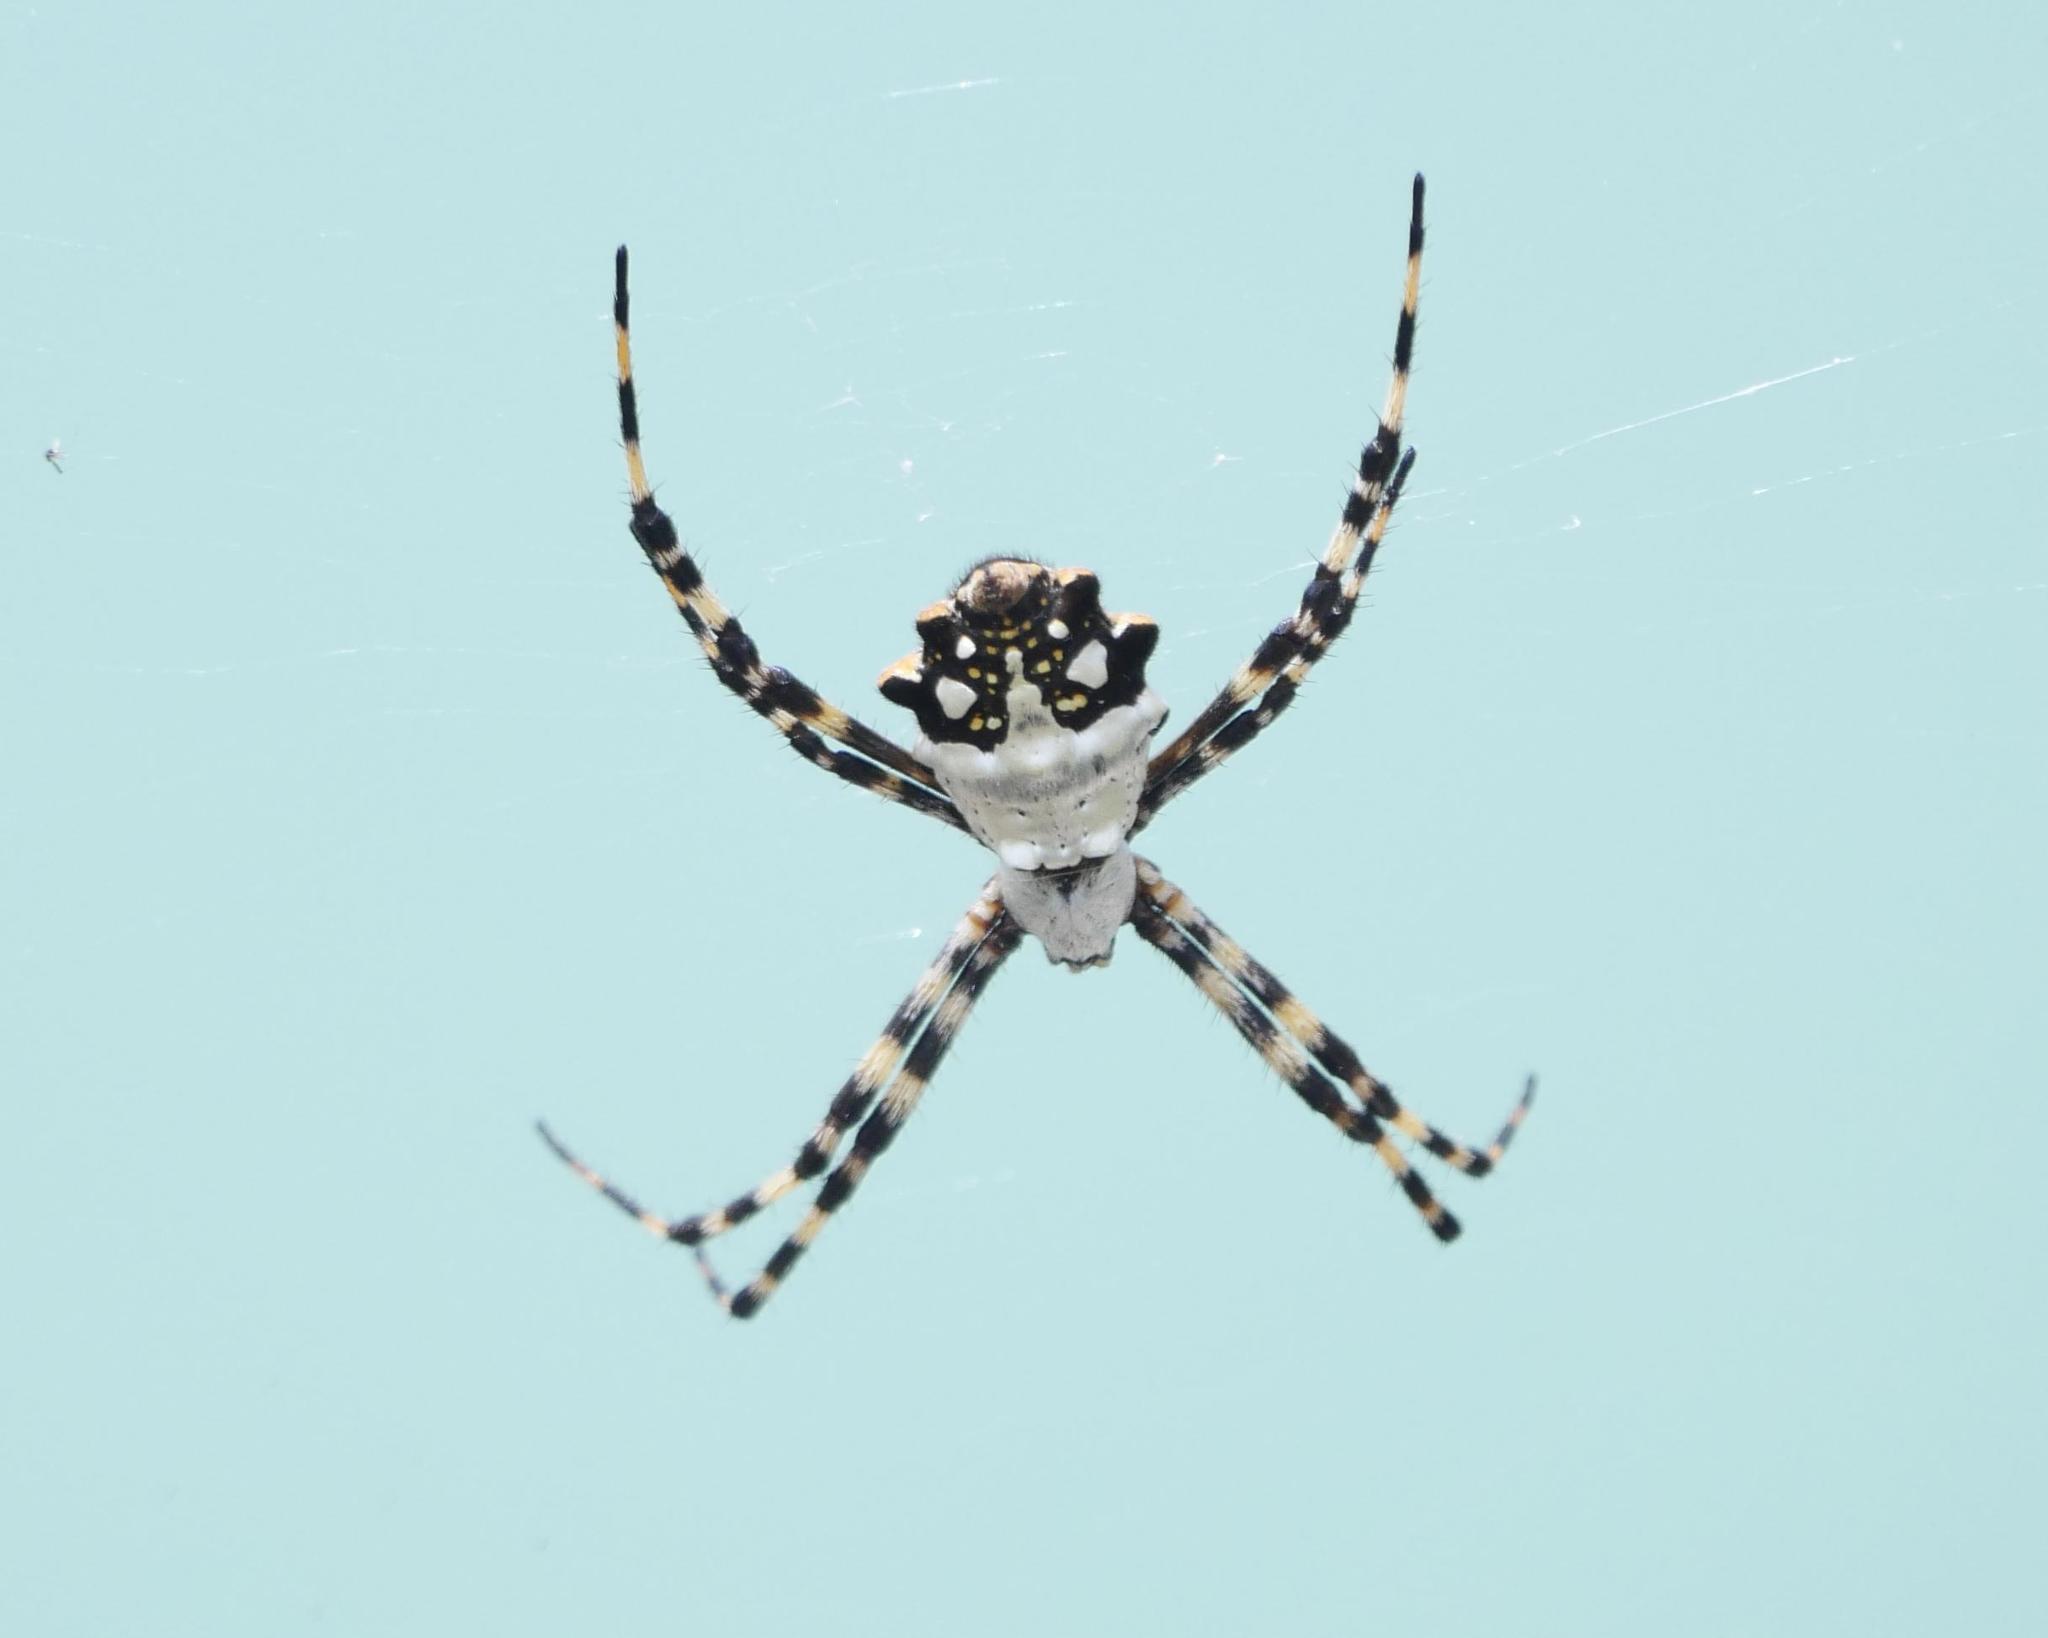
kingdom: Animalia
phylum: Arthropoda
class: Arachnida
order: Araneae
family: Araneidae
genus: Argiope
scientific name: Argiope argentata
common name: Orb weavers
